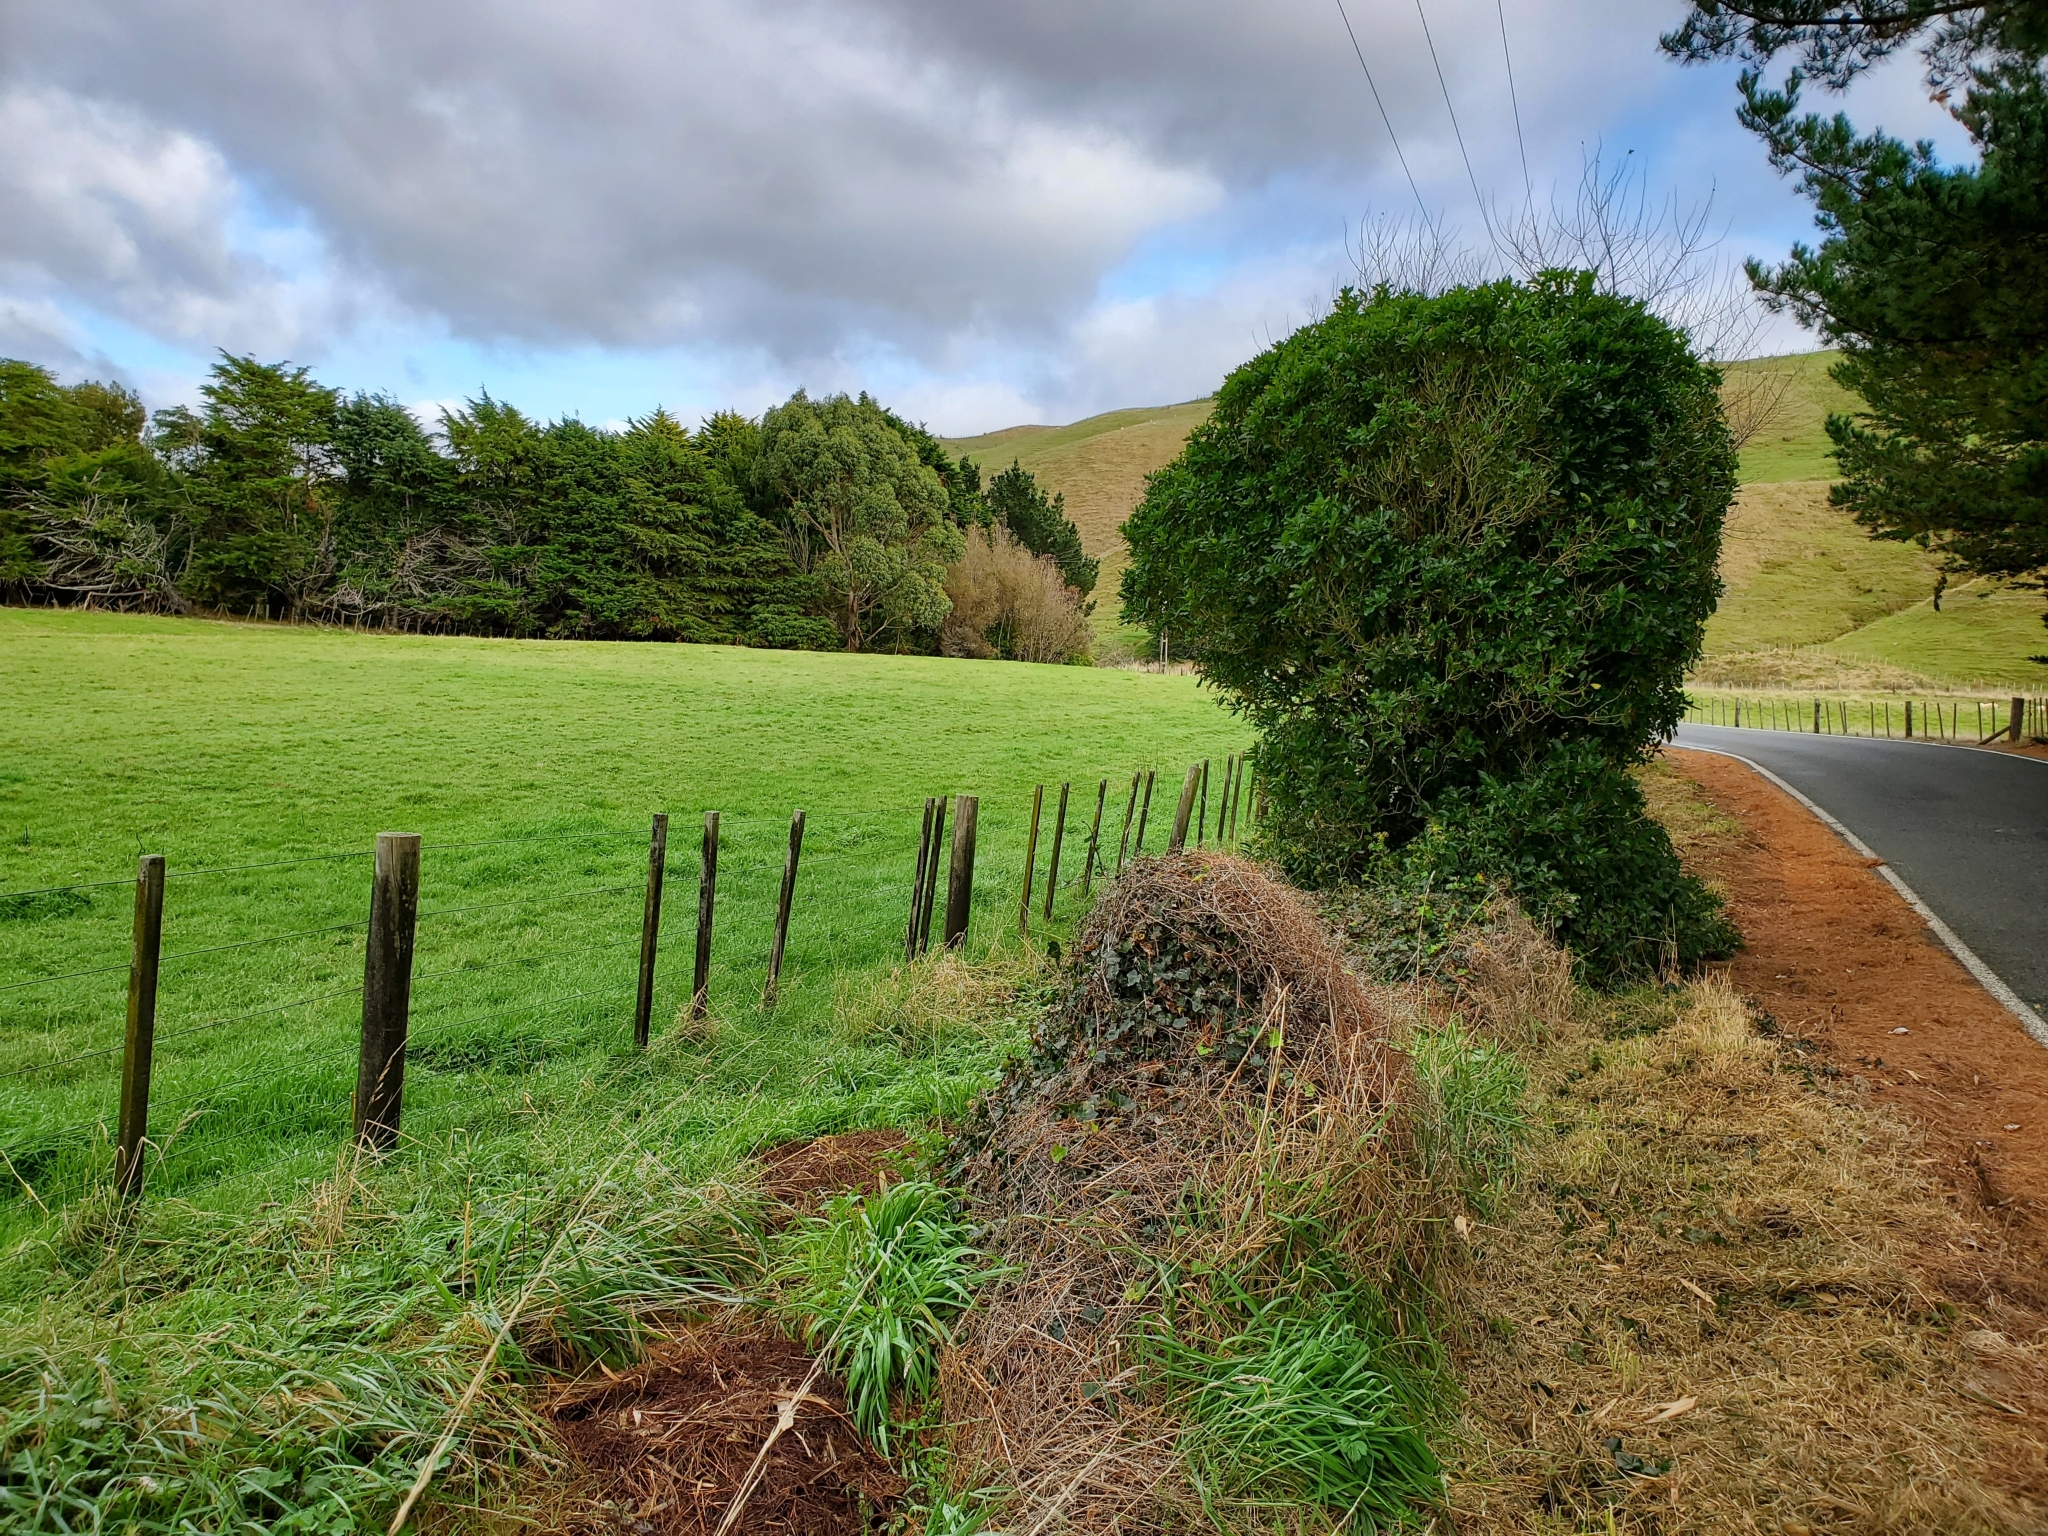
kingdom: Animalia
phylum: Chordata
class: Aves
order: Passeriformes
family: Turdidae
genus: Turdus
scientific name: Turdus philomelos
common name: Song thrush
